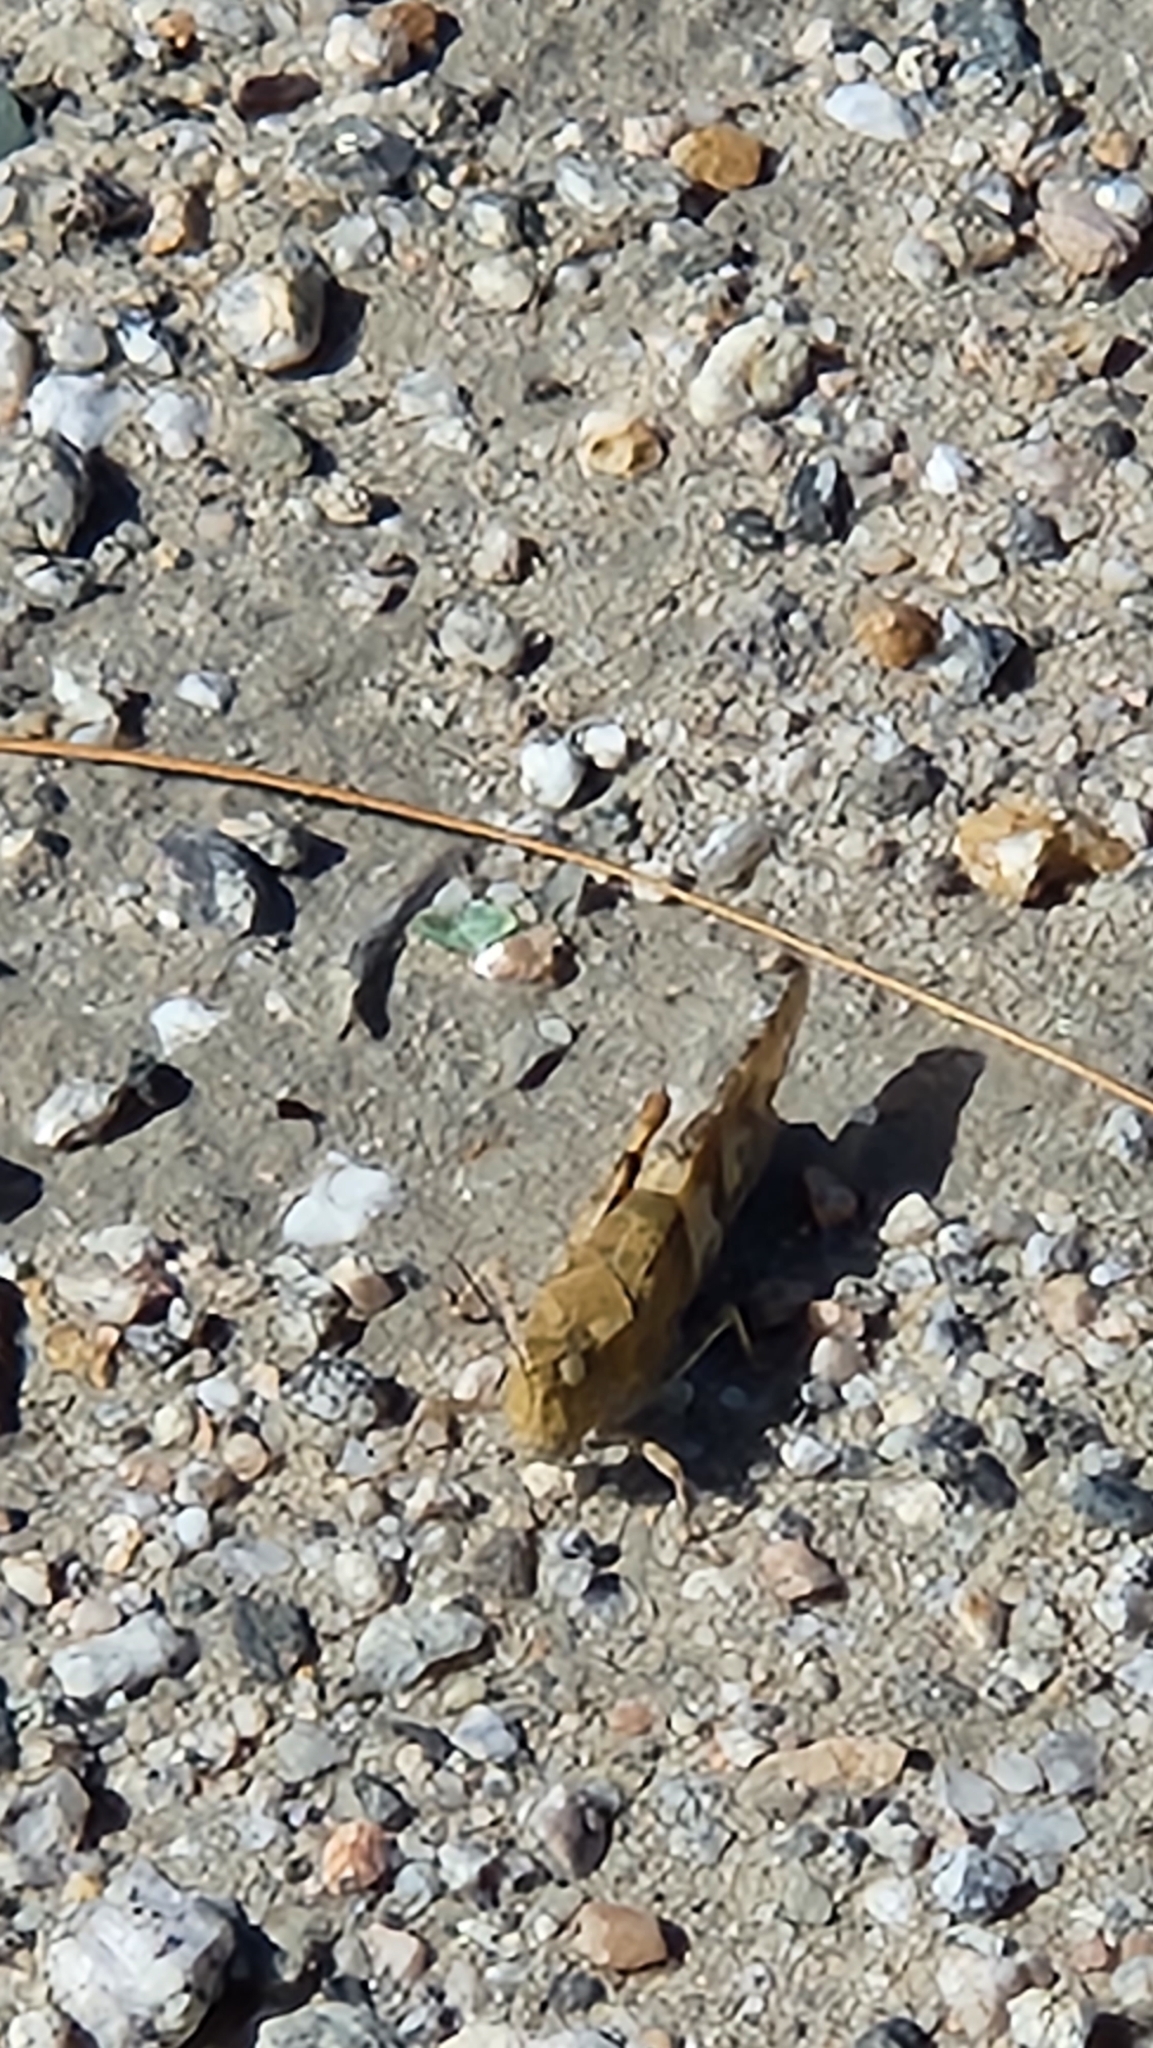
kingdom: Animalia
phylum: Arthropoda
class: Insecta
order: Orthoptera
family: Acrididae
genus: Trimerotropis
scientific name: Trimerotropis pallidipennis
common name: Pallid-winged grasshopper
